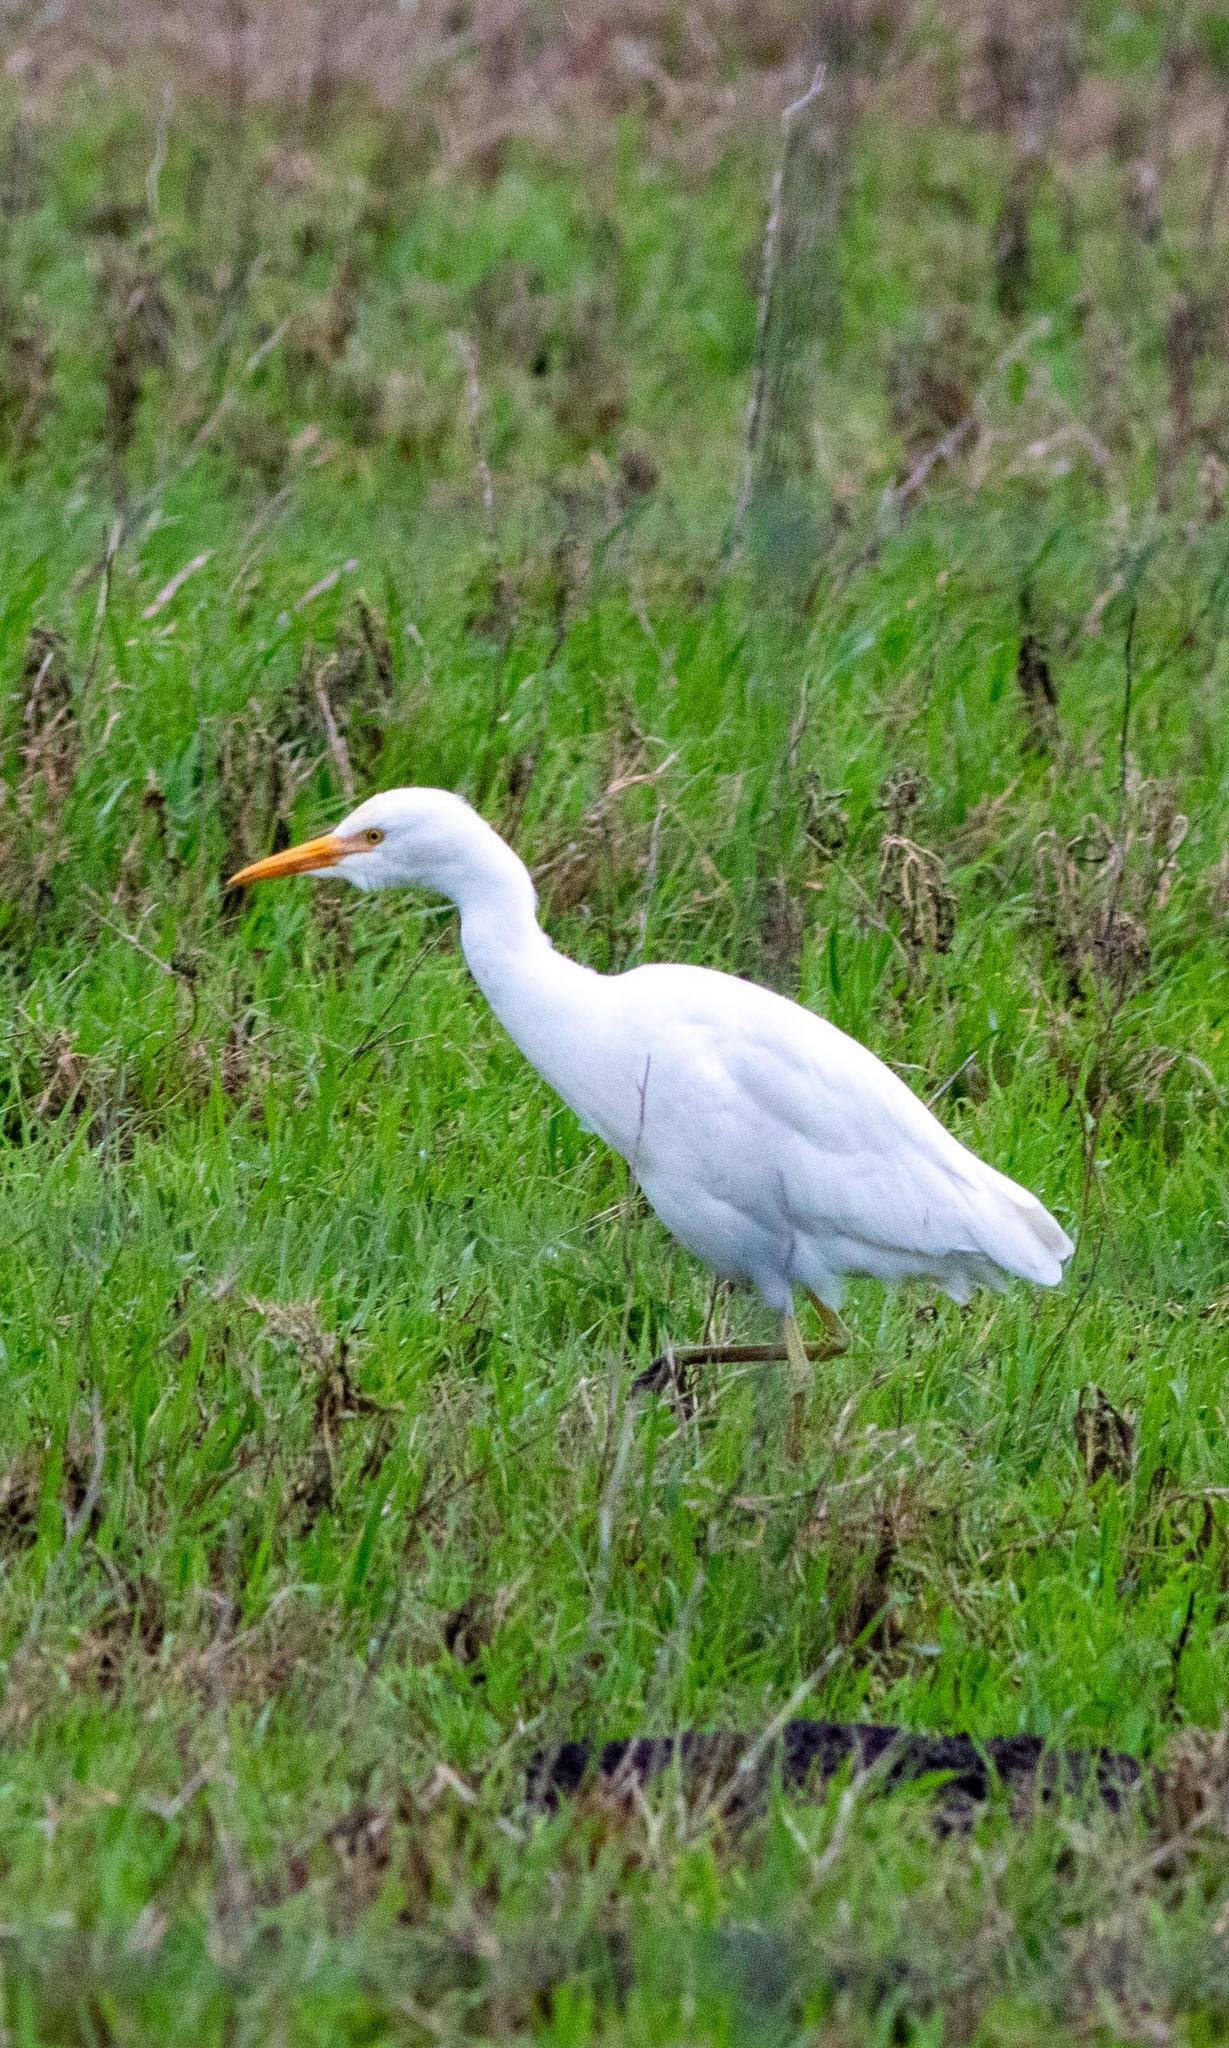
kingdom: Animalia
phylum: Chordata
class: Aves
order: Pelecaniformes
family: Ardeidae
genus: Bubulcus
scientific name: Bubulcus ibis
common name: Cattle egret
